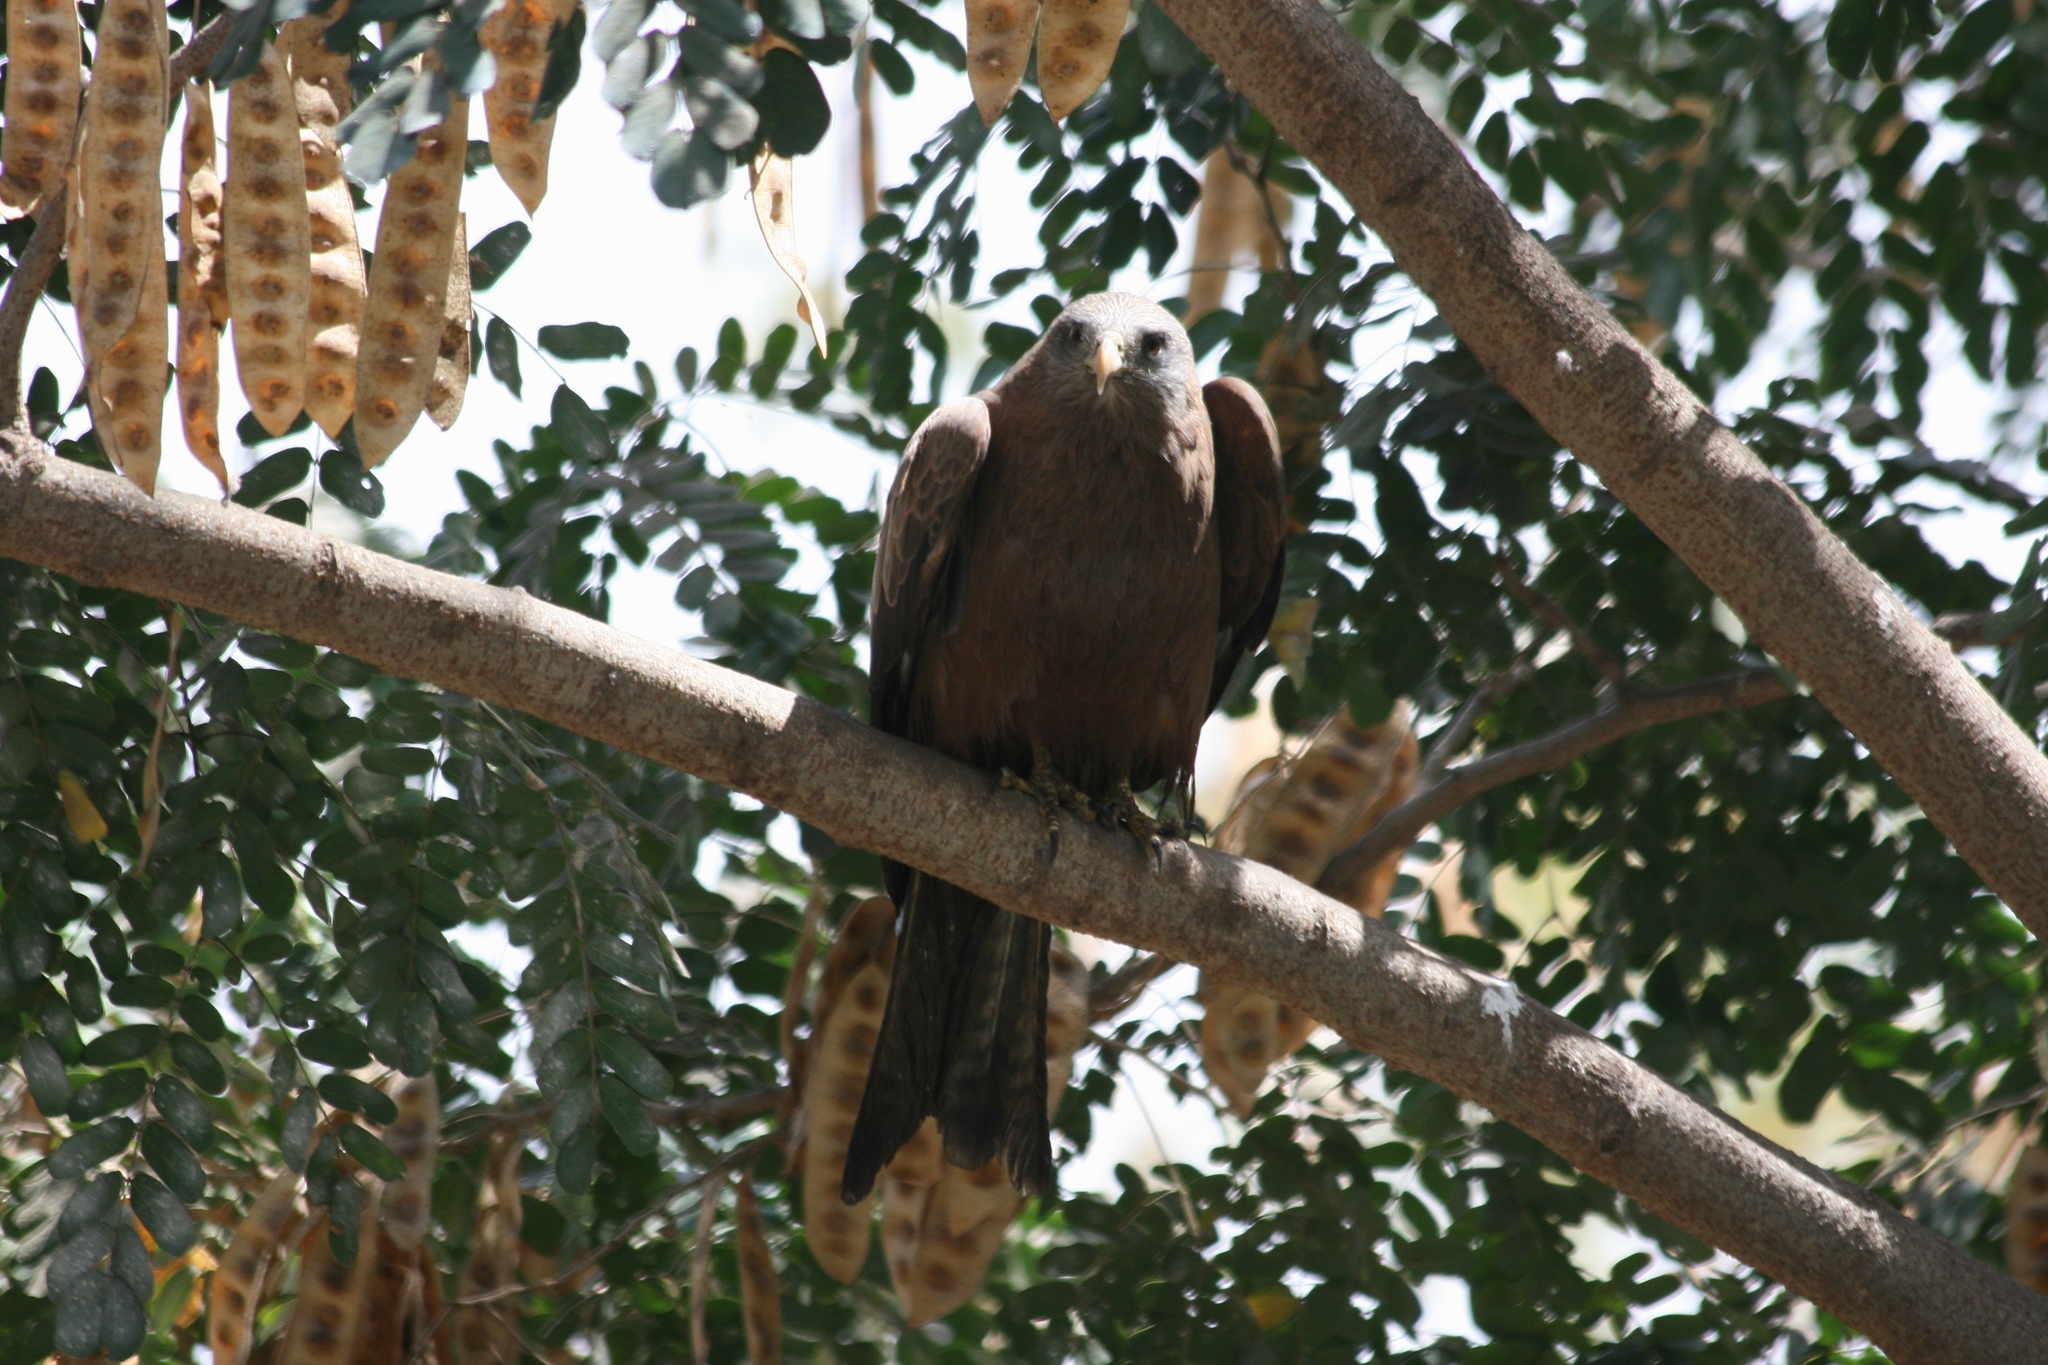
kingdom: Animalia
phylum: Chordata
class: Aves
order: Accipitriformes
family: Accipitridae
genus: Milvus
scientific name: Milvus migrans
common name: Black kite
